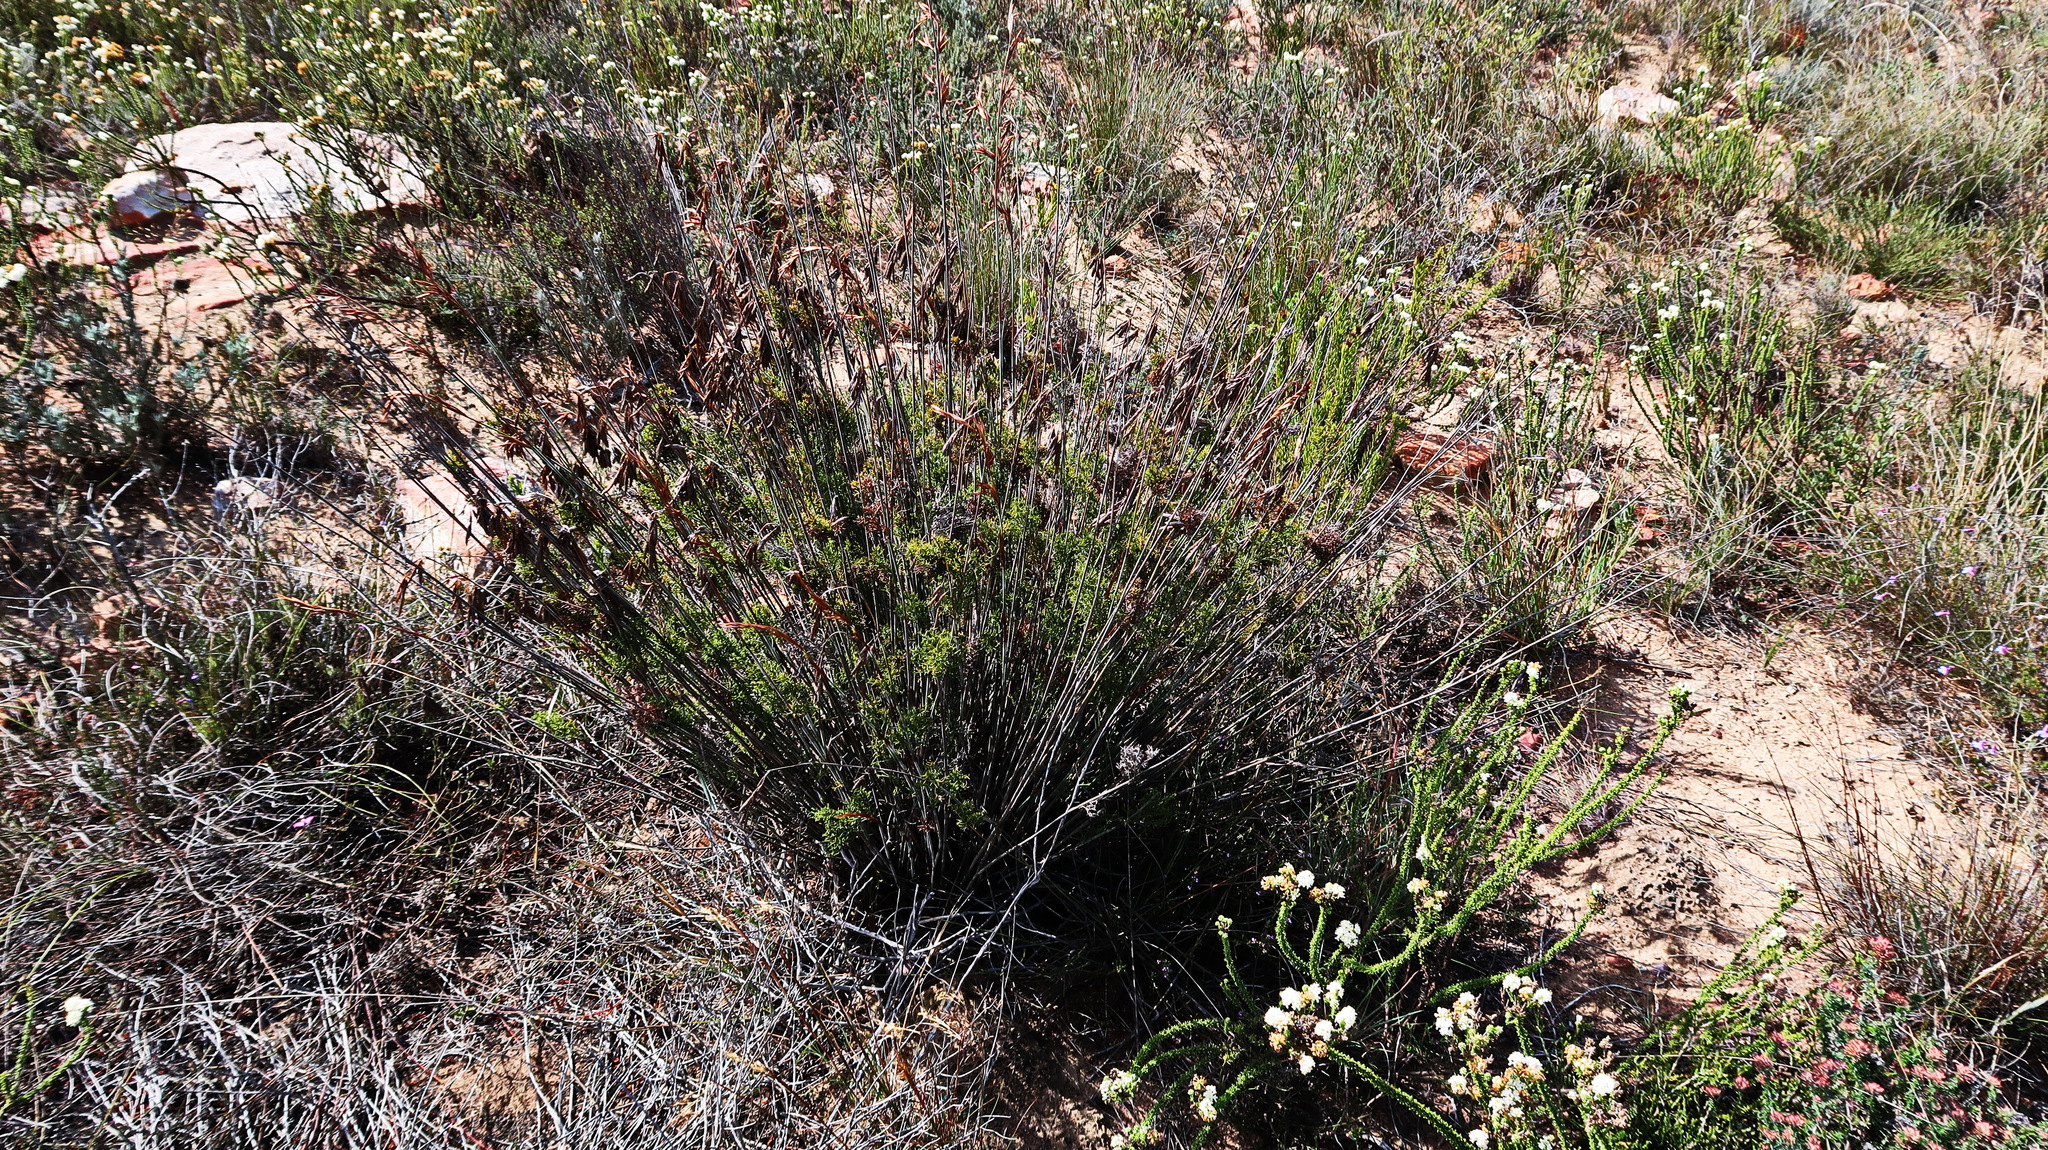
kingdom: Plantae
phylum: Tracheophyta
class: Liliopsida
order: Poales
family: Restionaceae
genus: Thamnochortus
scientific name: Thamnochortus rigidus
